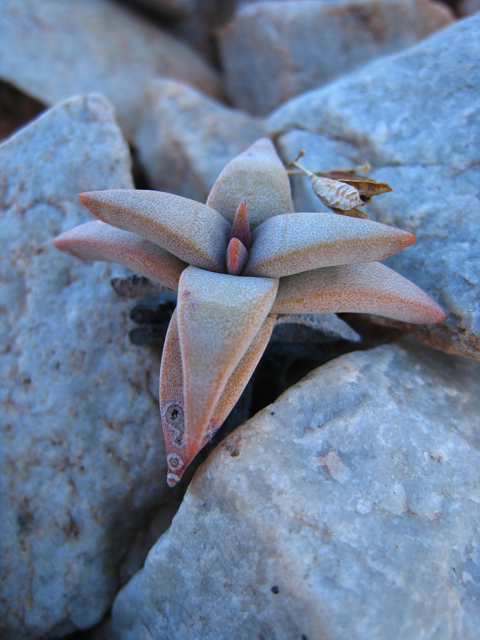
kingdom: Plantae
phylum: Tracheophyta
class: Magnoliopsida
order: Saxifragales
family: Crassulaceae
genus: Crassula
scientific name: Crassula congesta
